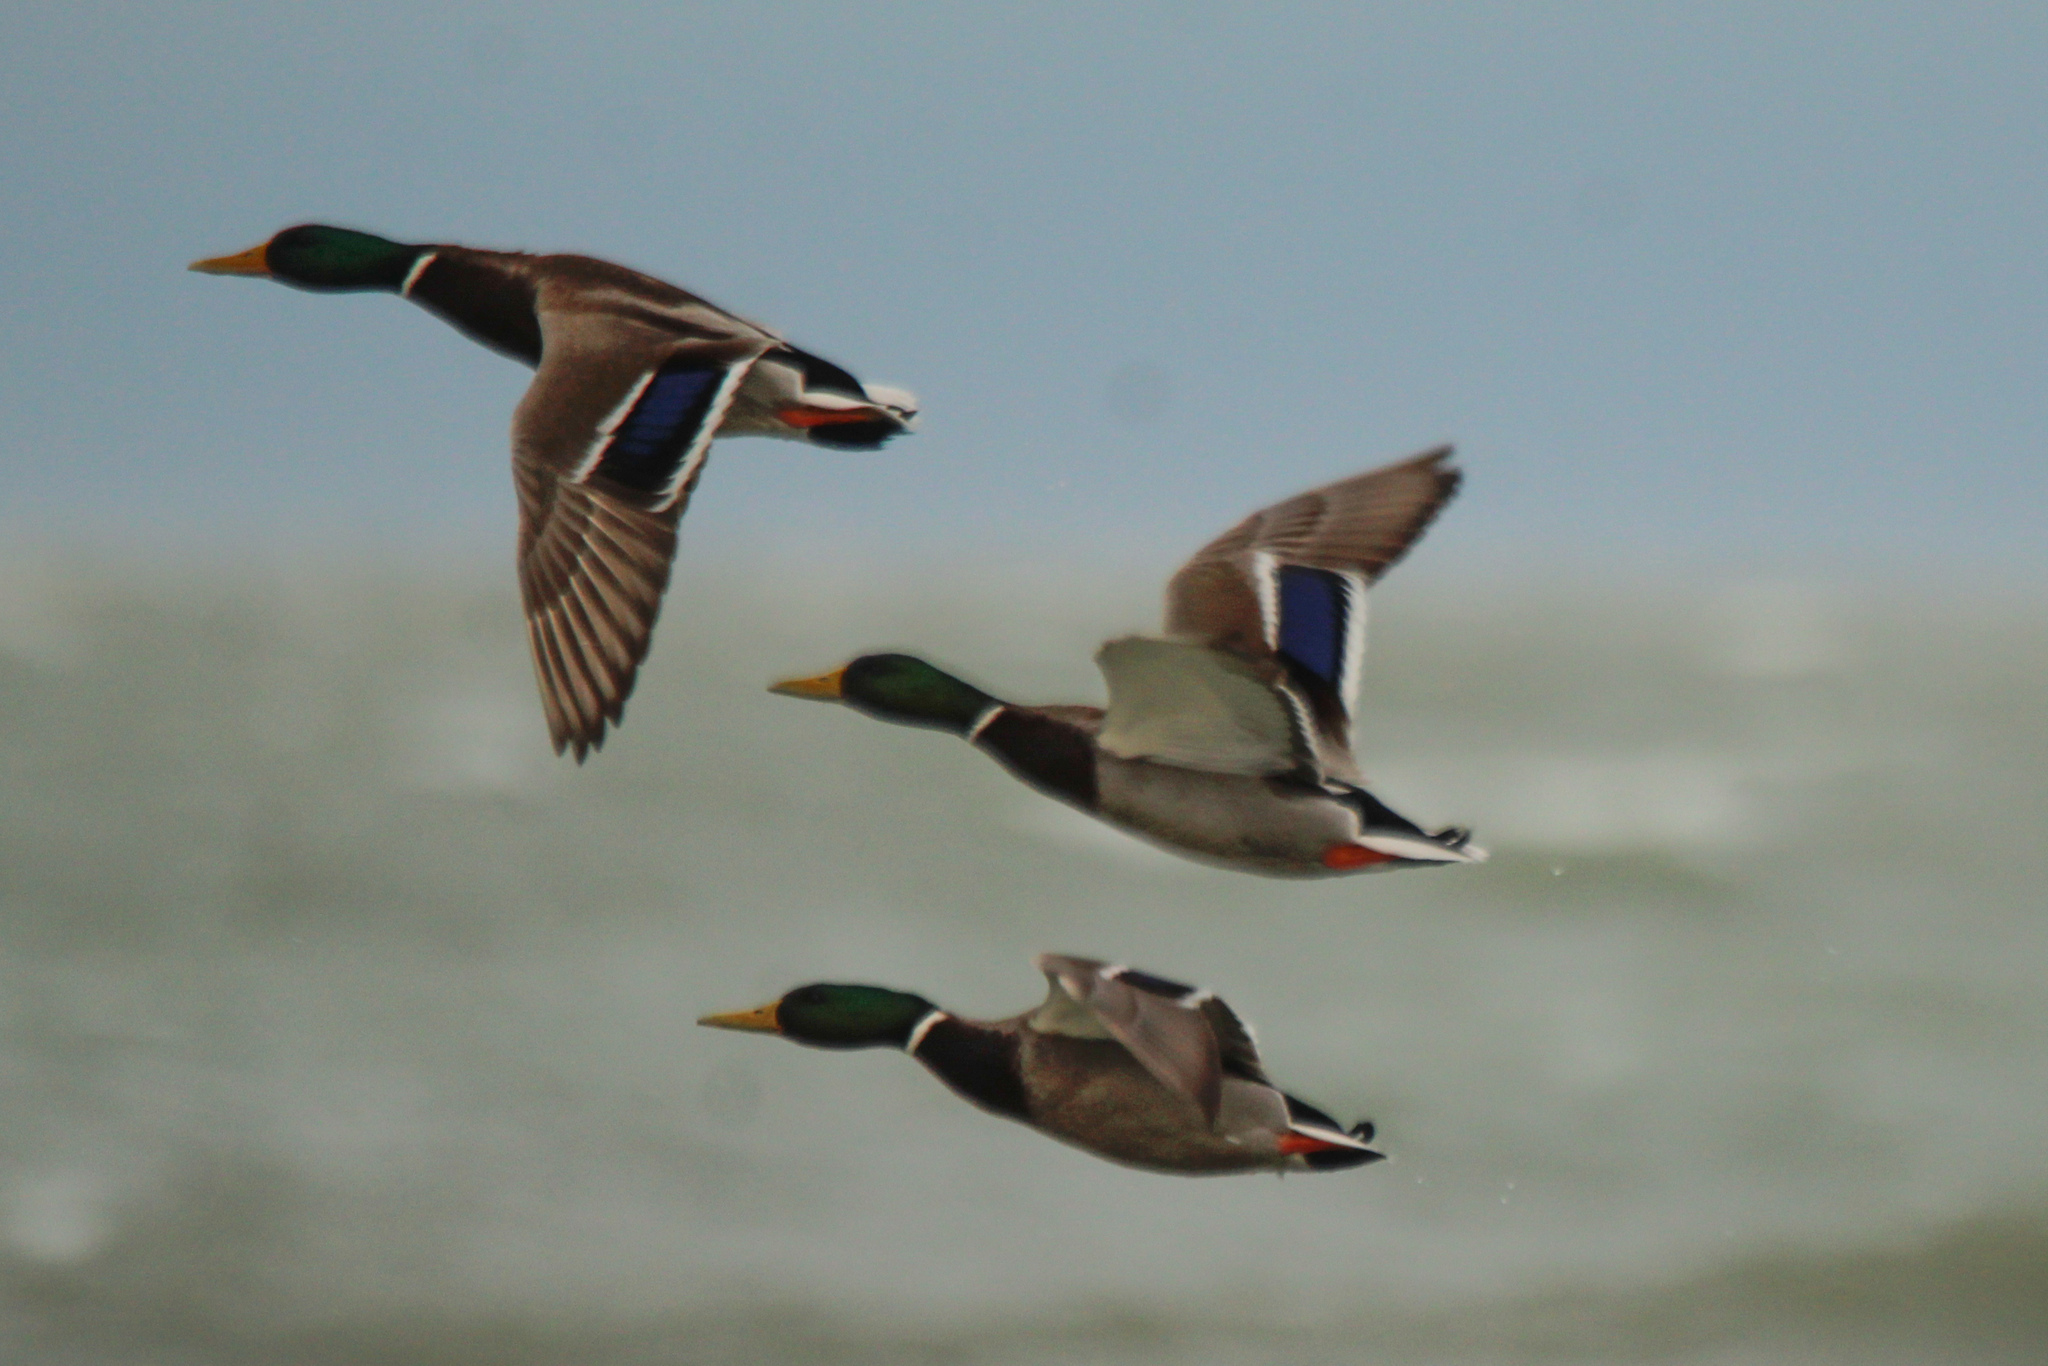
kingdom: Animalia
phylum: Chordata
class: Aves
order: Anseriformes
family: Anatidae
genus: Anas
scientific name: Anas platyrhynchos
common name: Mallard
